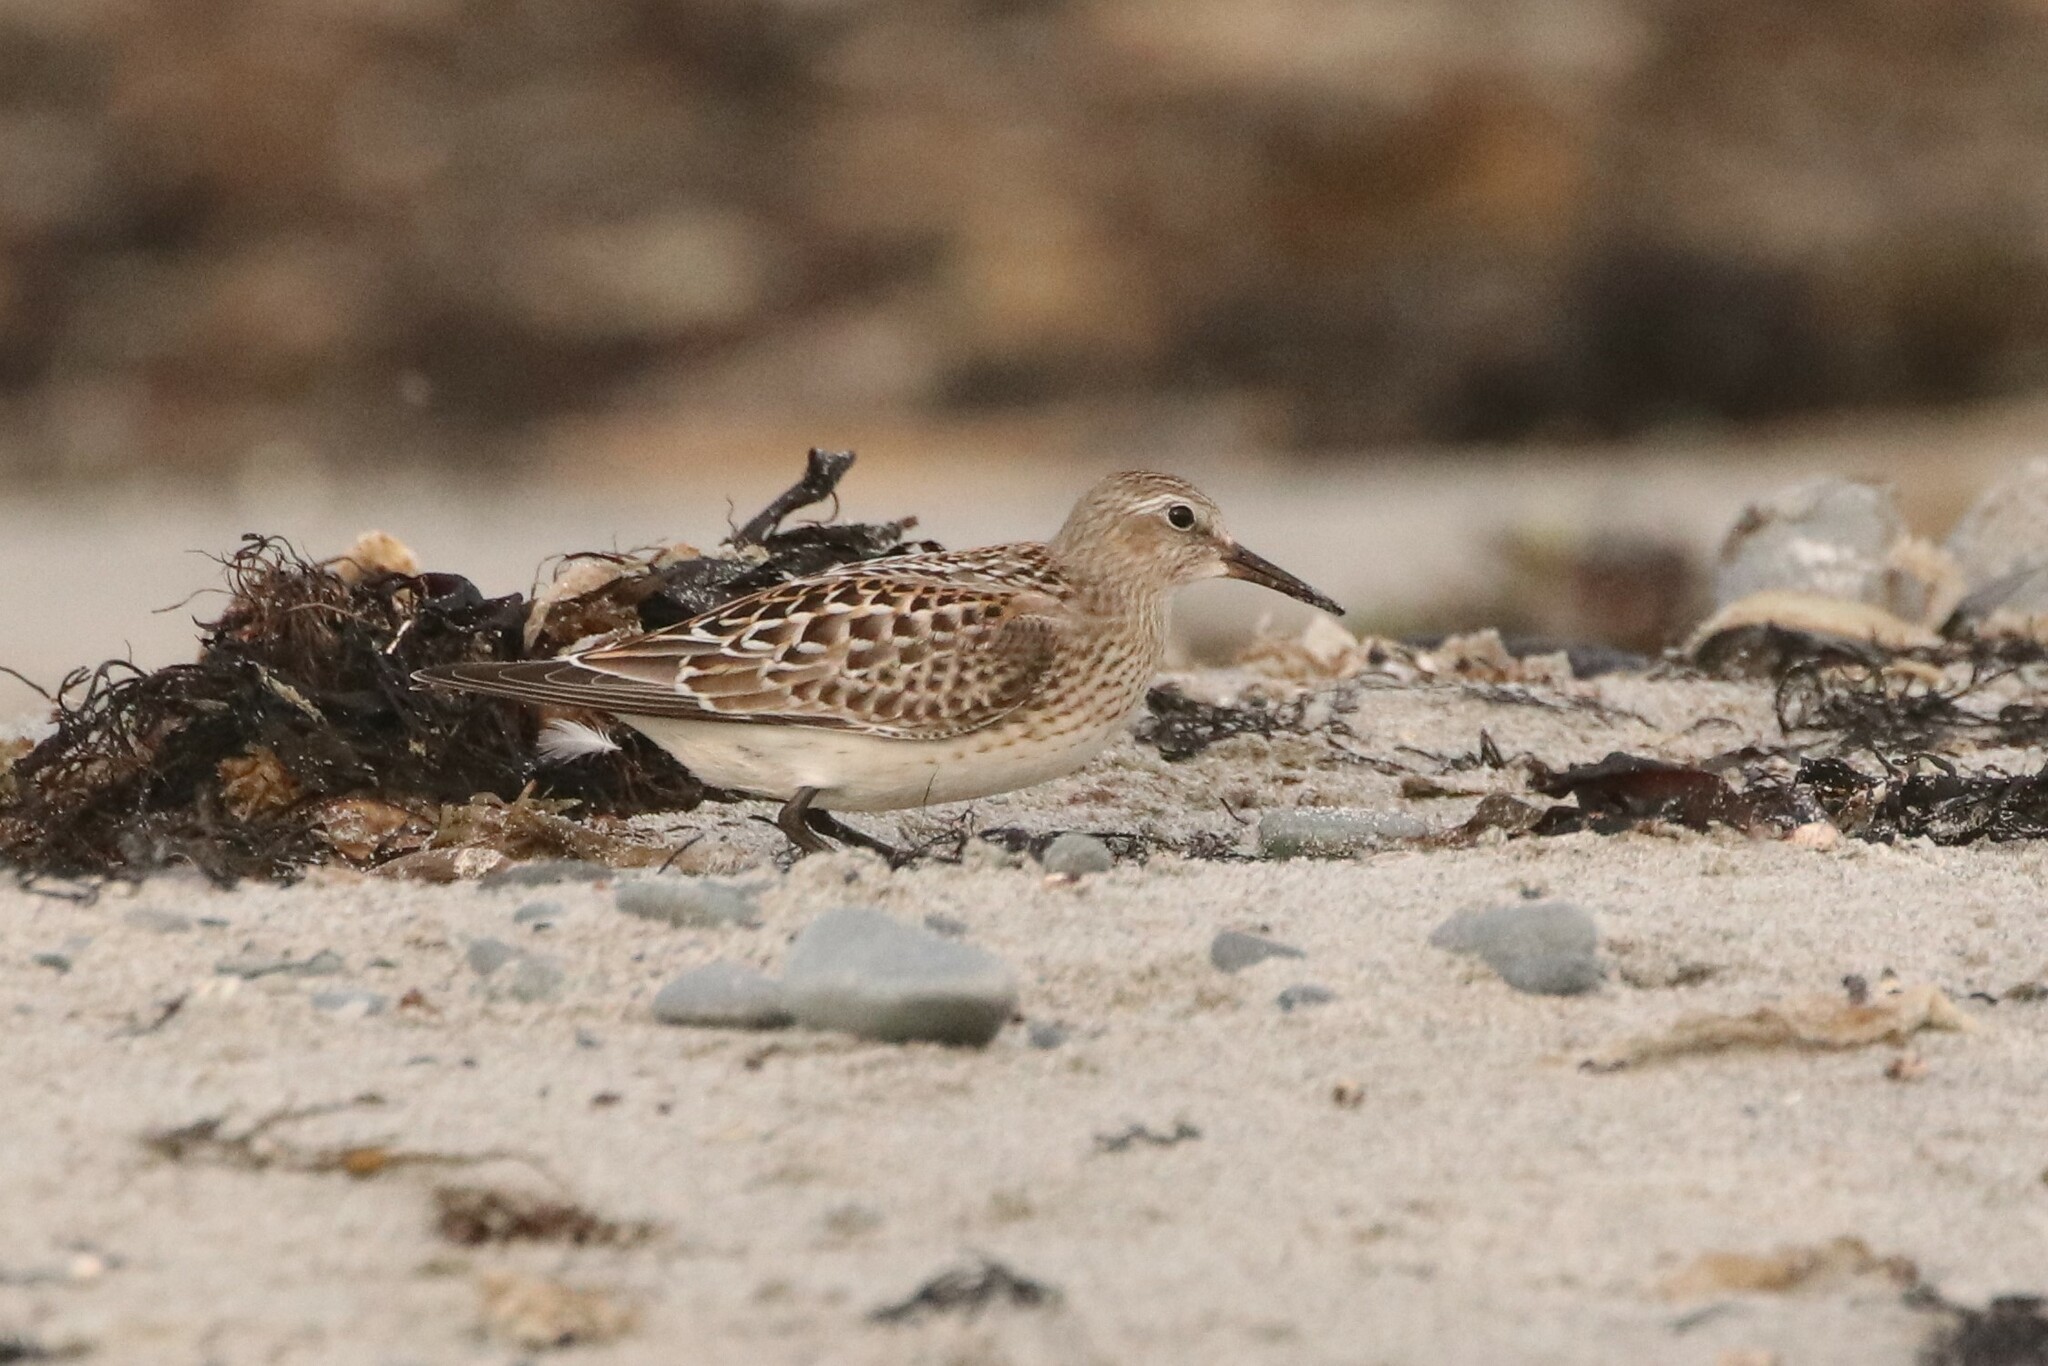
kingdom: Animalia
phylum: Chordata
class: Aves
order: Charadriiformes
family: Scolopacidae
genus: Calidris
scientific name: Calidris fuscicollis
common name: White-rumped sandpiper
